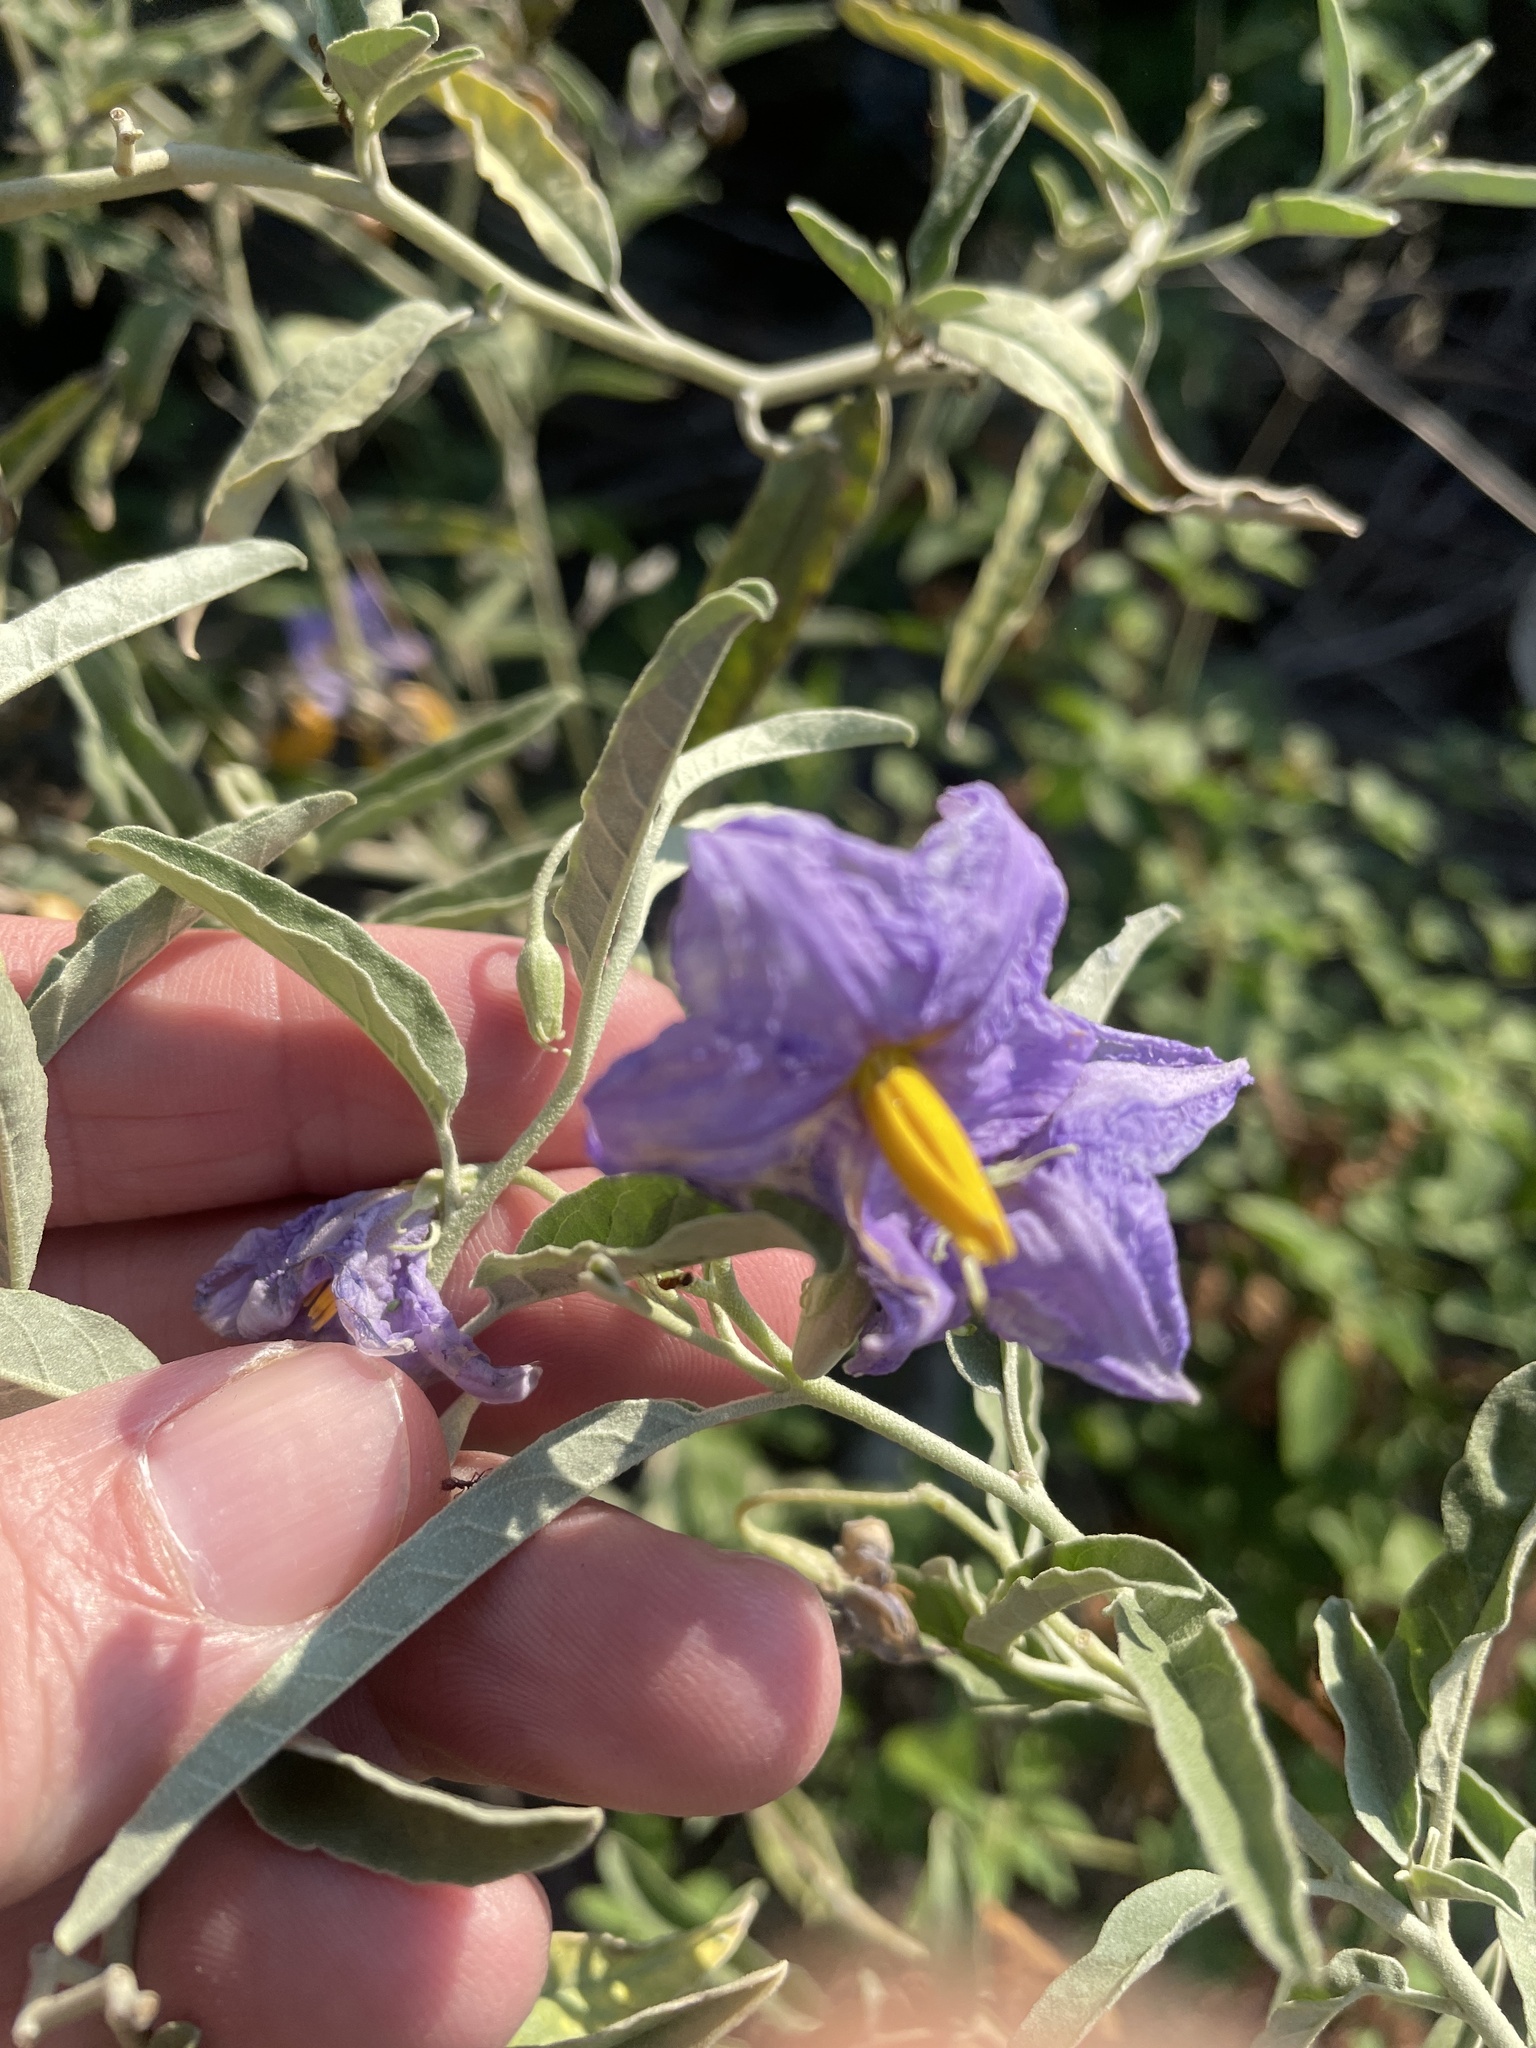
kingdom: Plantae
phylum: Tracheophyta
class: Magnoliopsida
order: Solanales
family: Solanaceae
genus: Solanum
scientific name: Solanum elaeagnifolium
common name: Silverleaf nightshade
